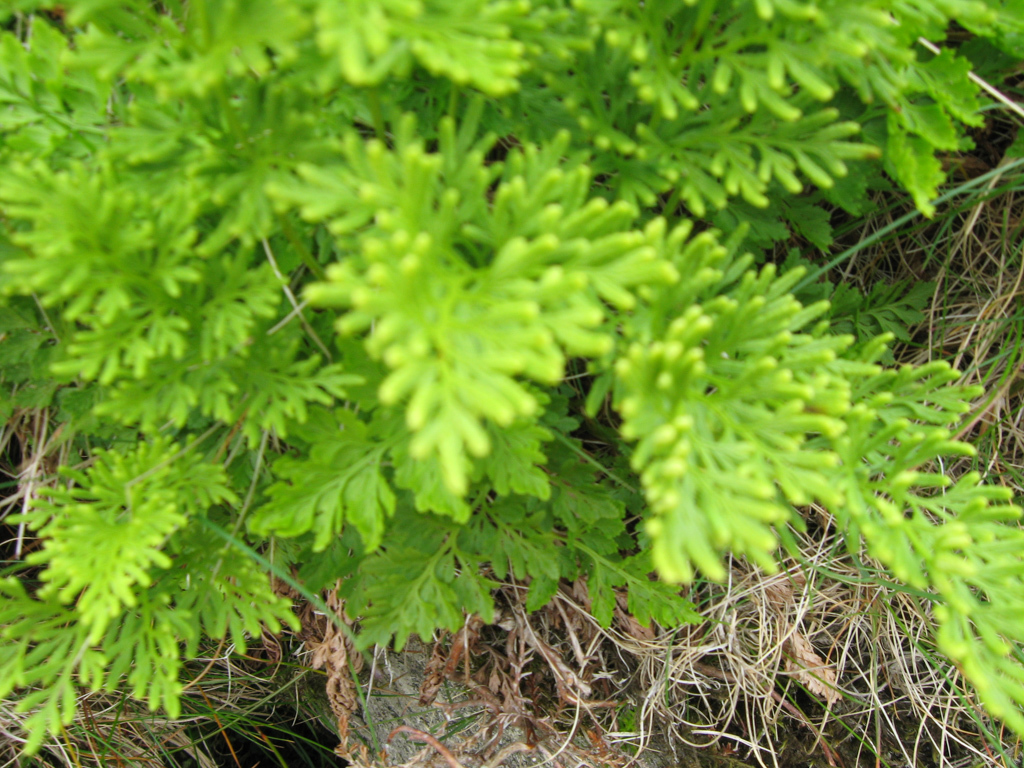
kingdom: Plantae
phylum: Tracheophyta
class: Polypodiopsida
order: Polypodiales
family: Pteridaceae
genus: Cryptogramma
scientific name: Cryptogramma crispa
